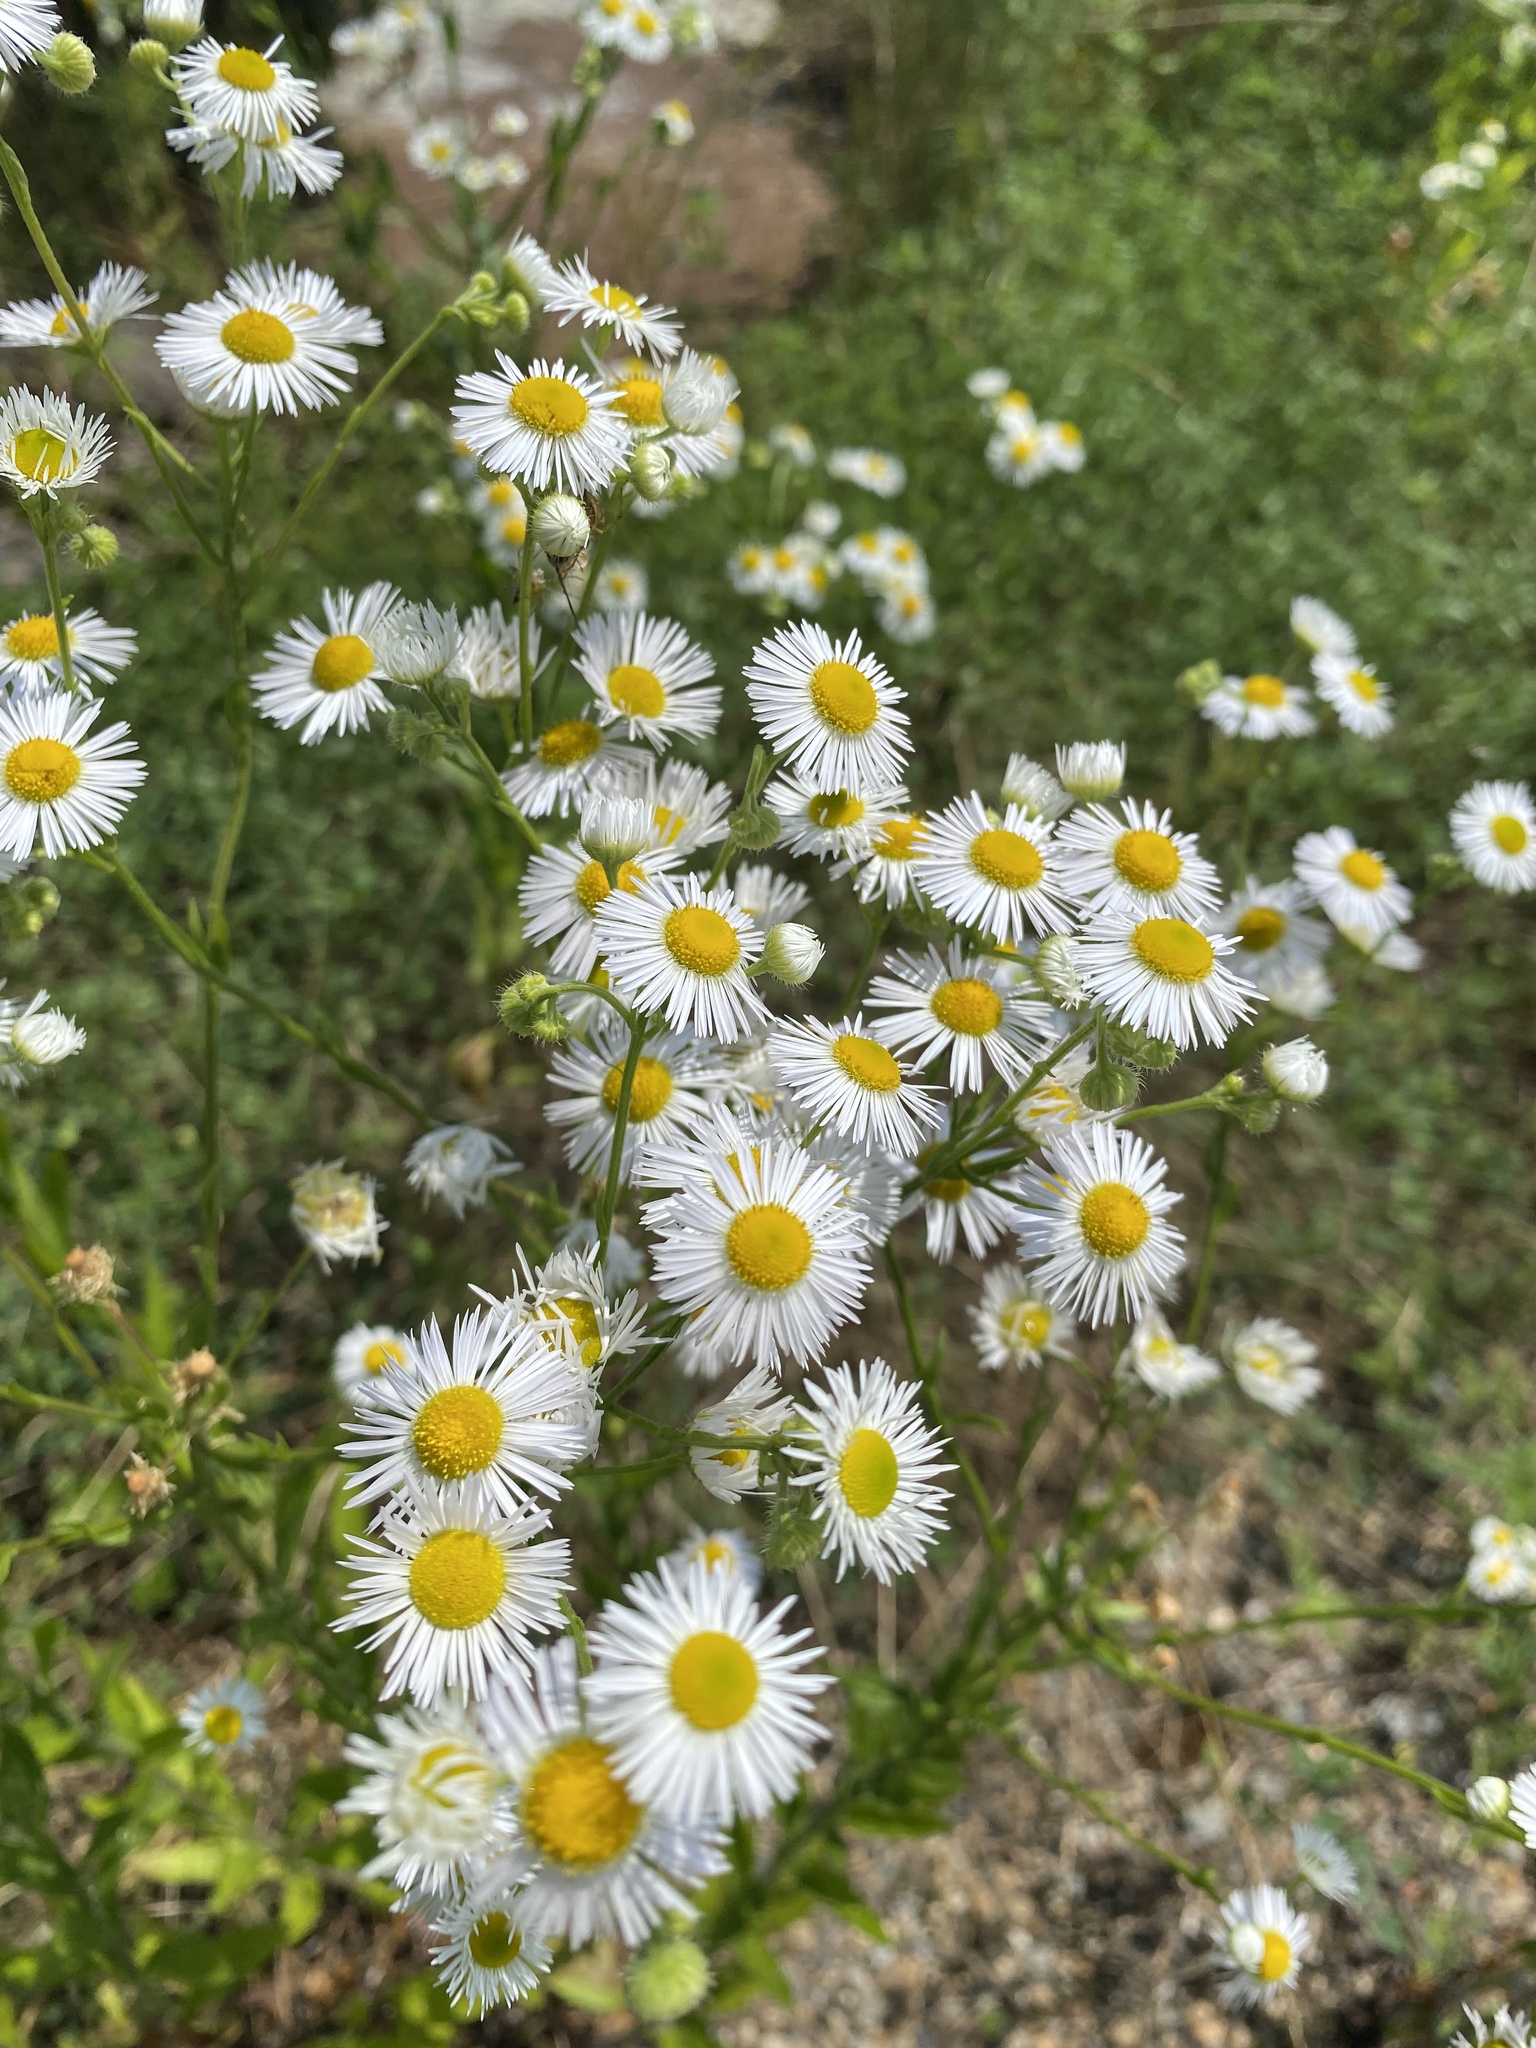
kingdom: Plantae
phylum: Tracheophyta
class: Magnoliopsida
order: Asterales
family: Asteraceae
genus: Erigeron
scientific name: Erigeron annuus
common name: Tall fleabane
